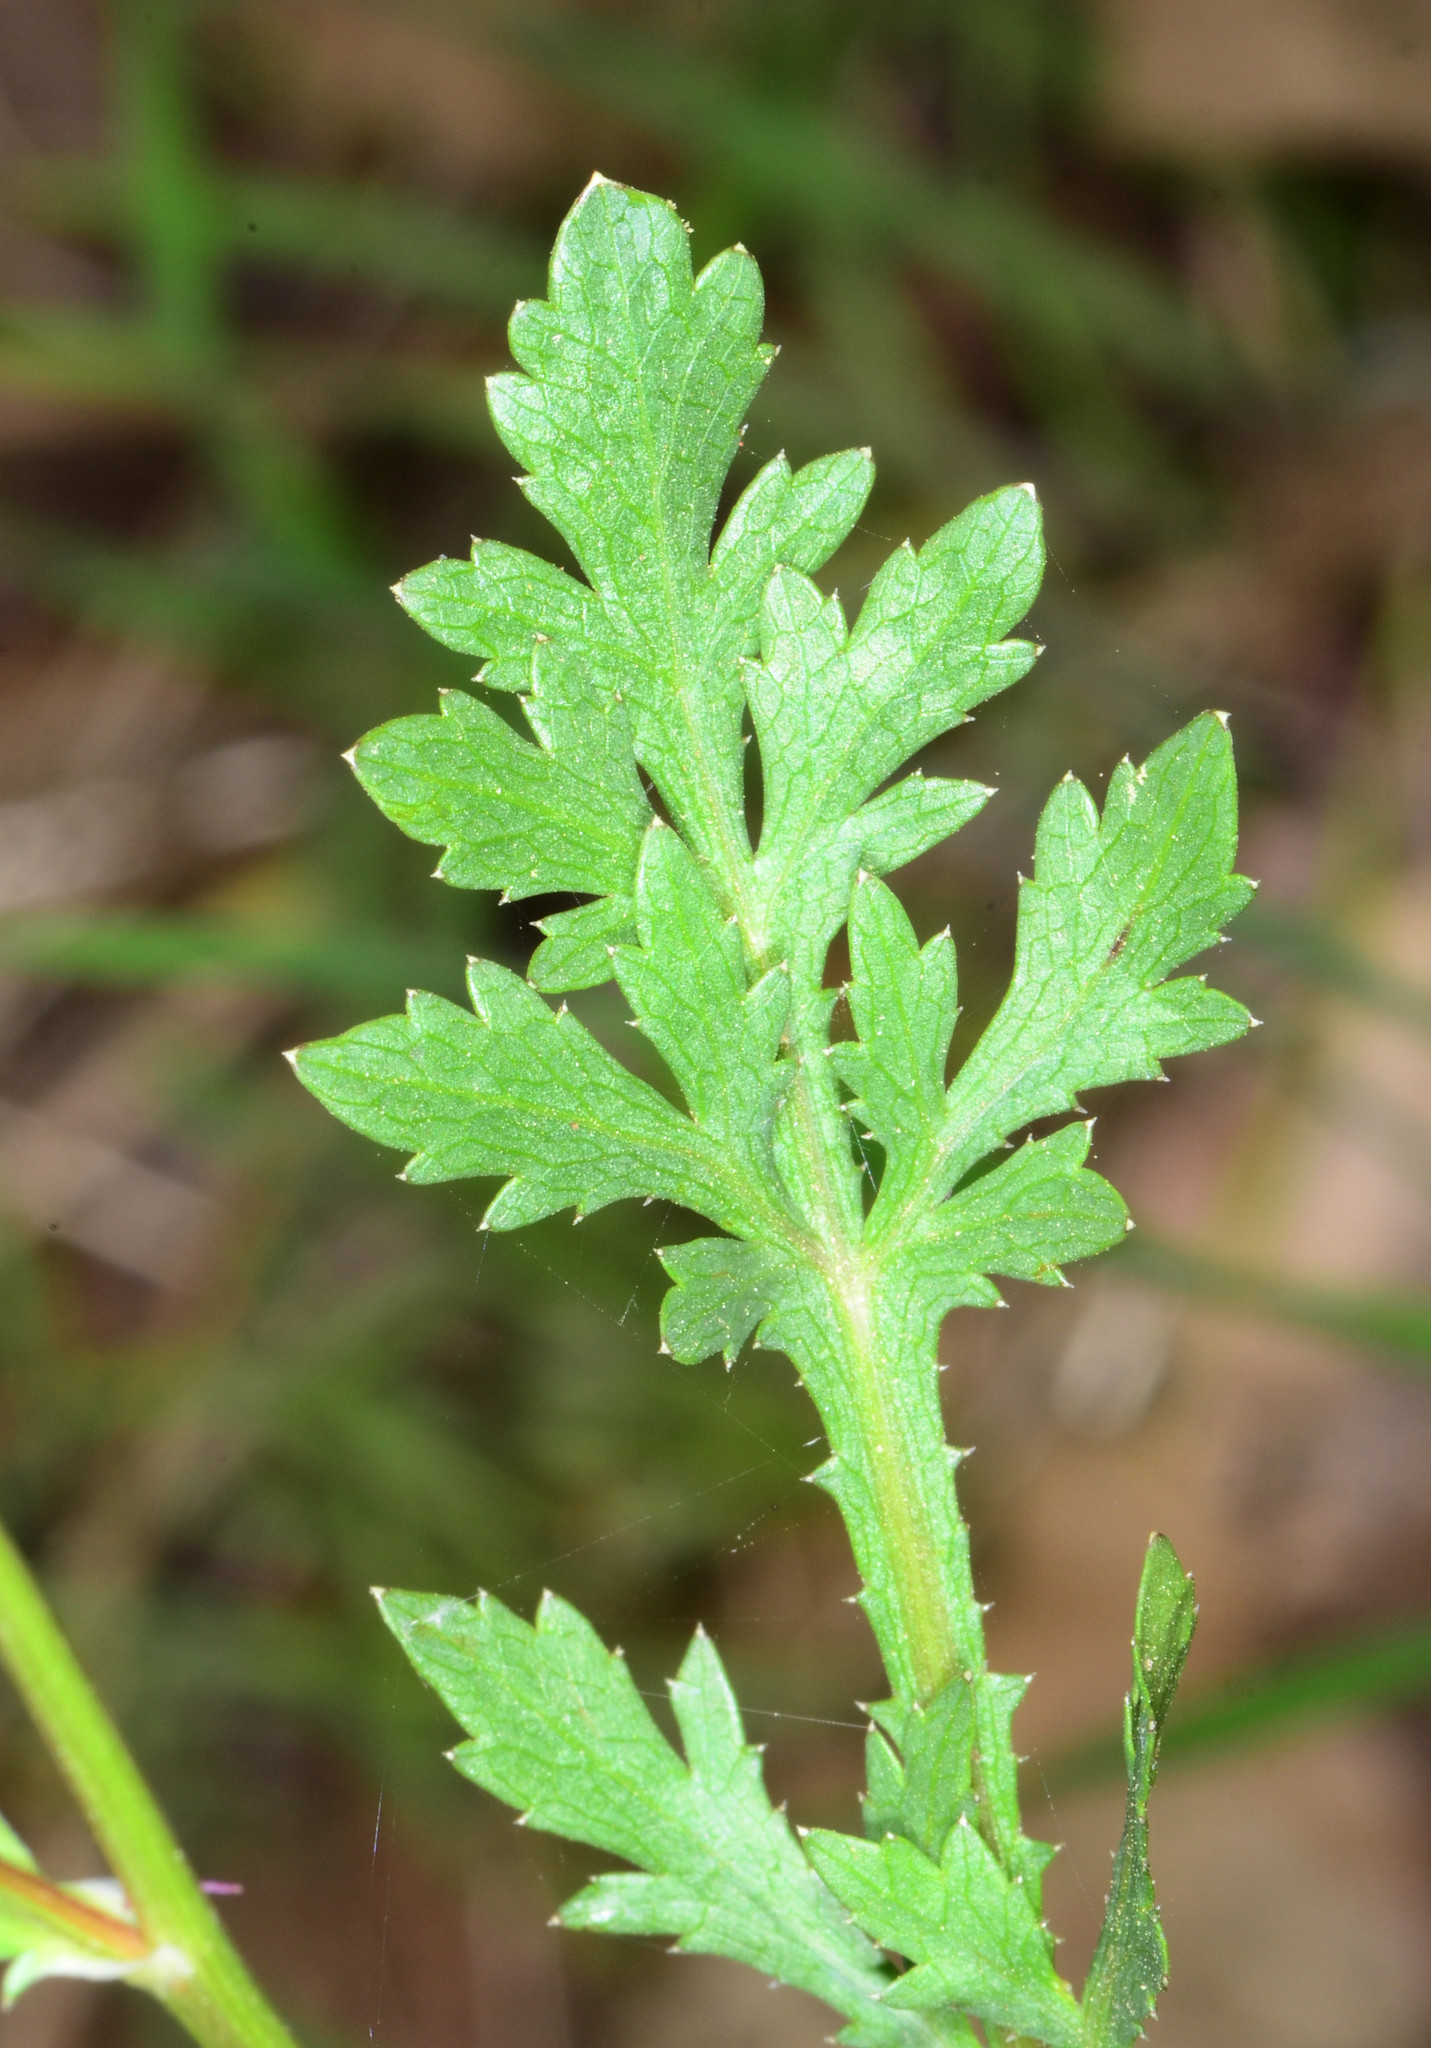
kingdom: Plantae
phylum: Tracheophyta
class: Magnoliopsida
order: Apiales
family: Apiaceae
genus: Sanicula
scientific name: Sanicula bipinnatifida
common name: Shoe-buttons
